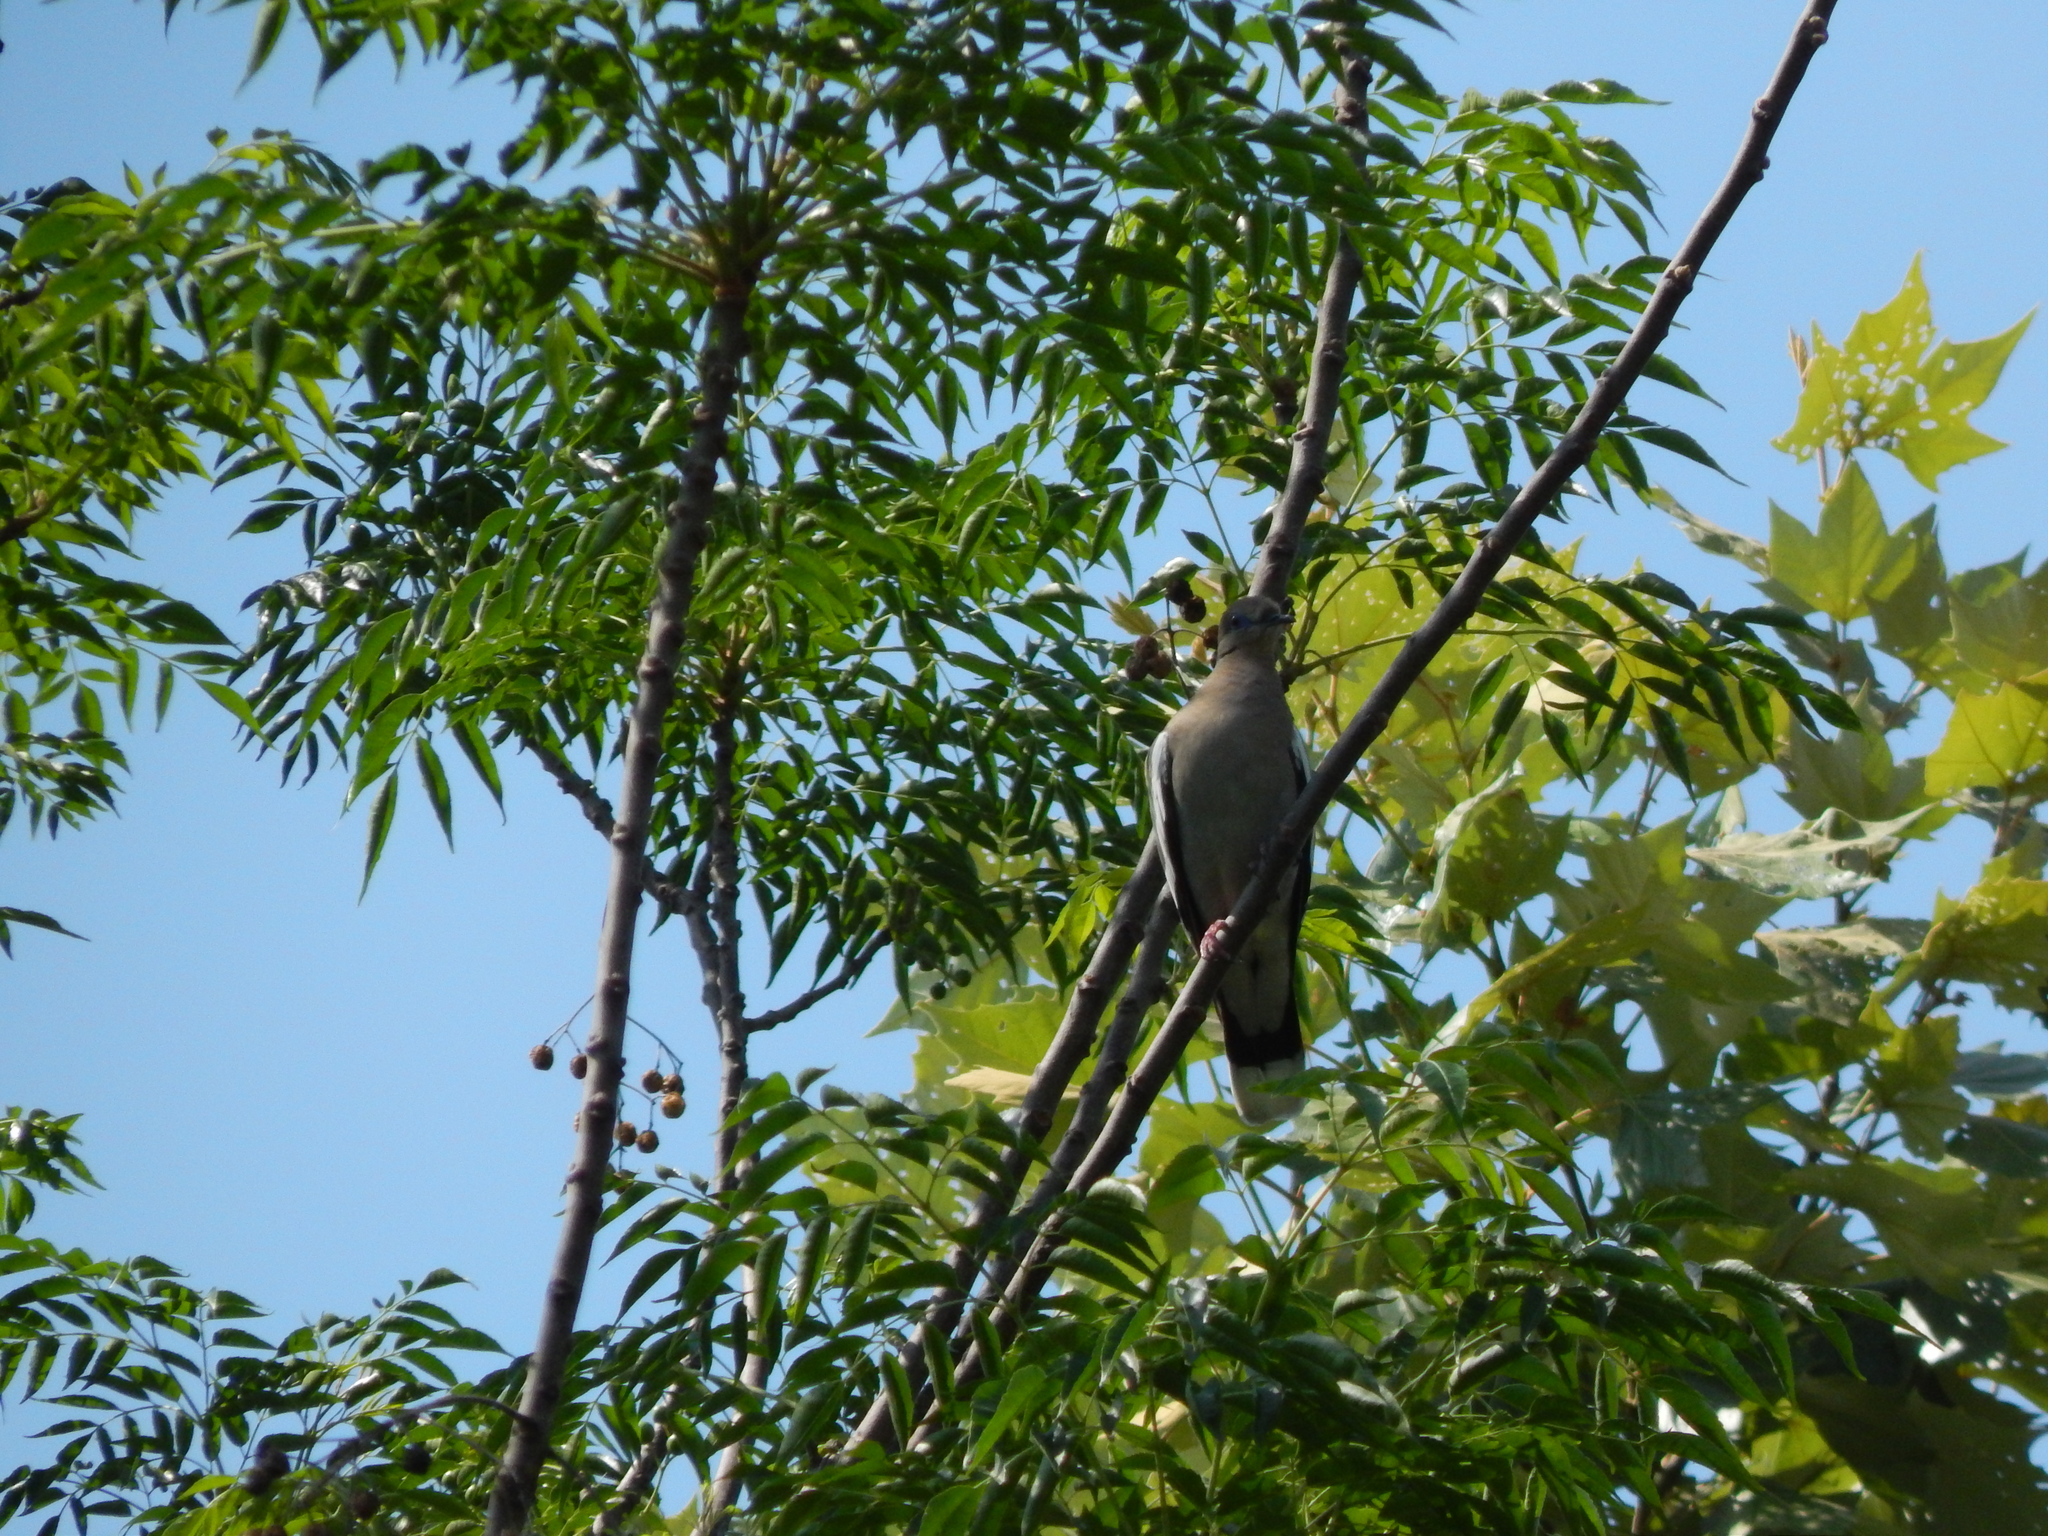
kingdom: Animalia
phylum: Chordata
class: Aves
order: Columbiformes
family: Columbidae
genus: Zenaida
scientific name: Zenaida asiatica
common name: White-winged dove
